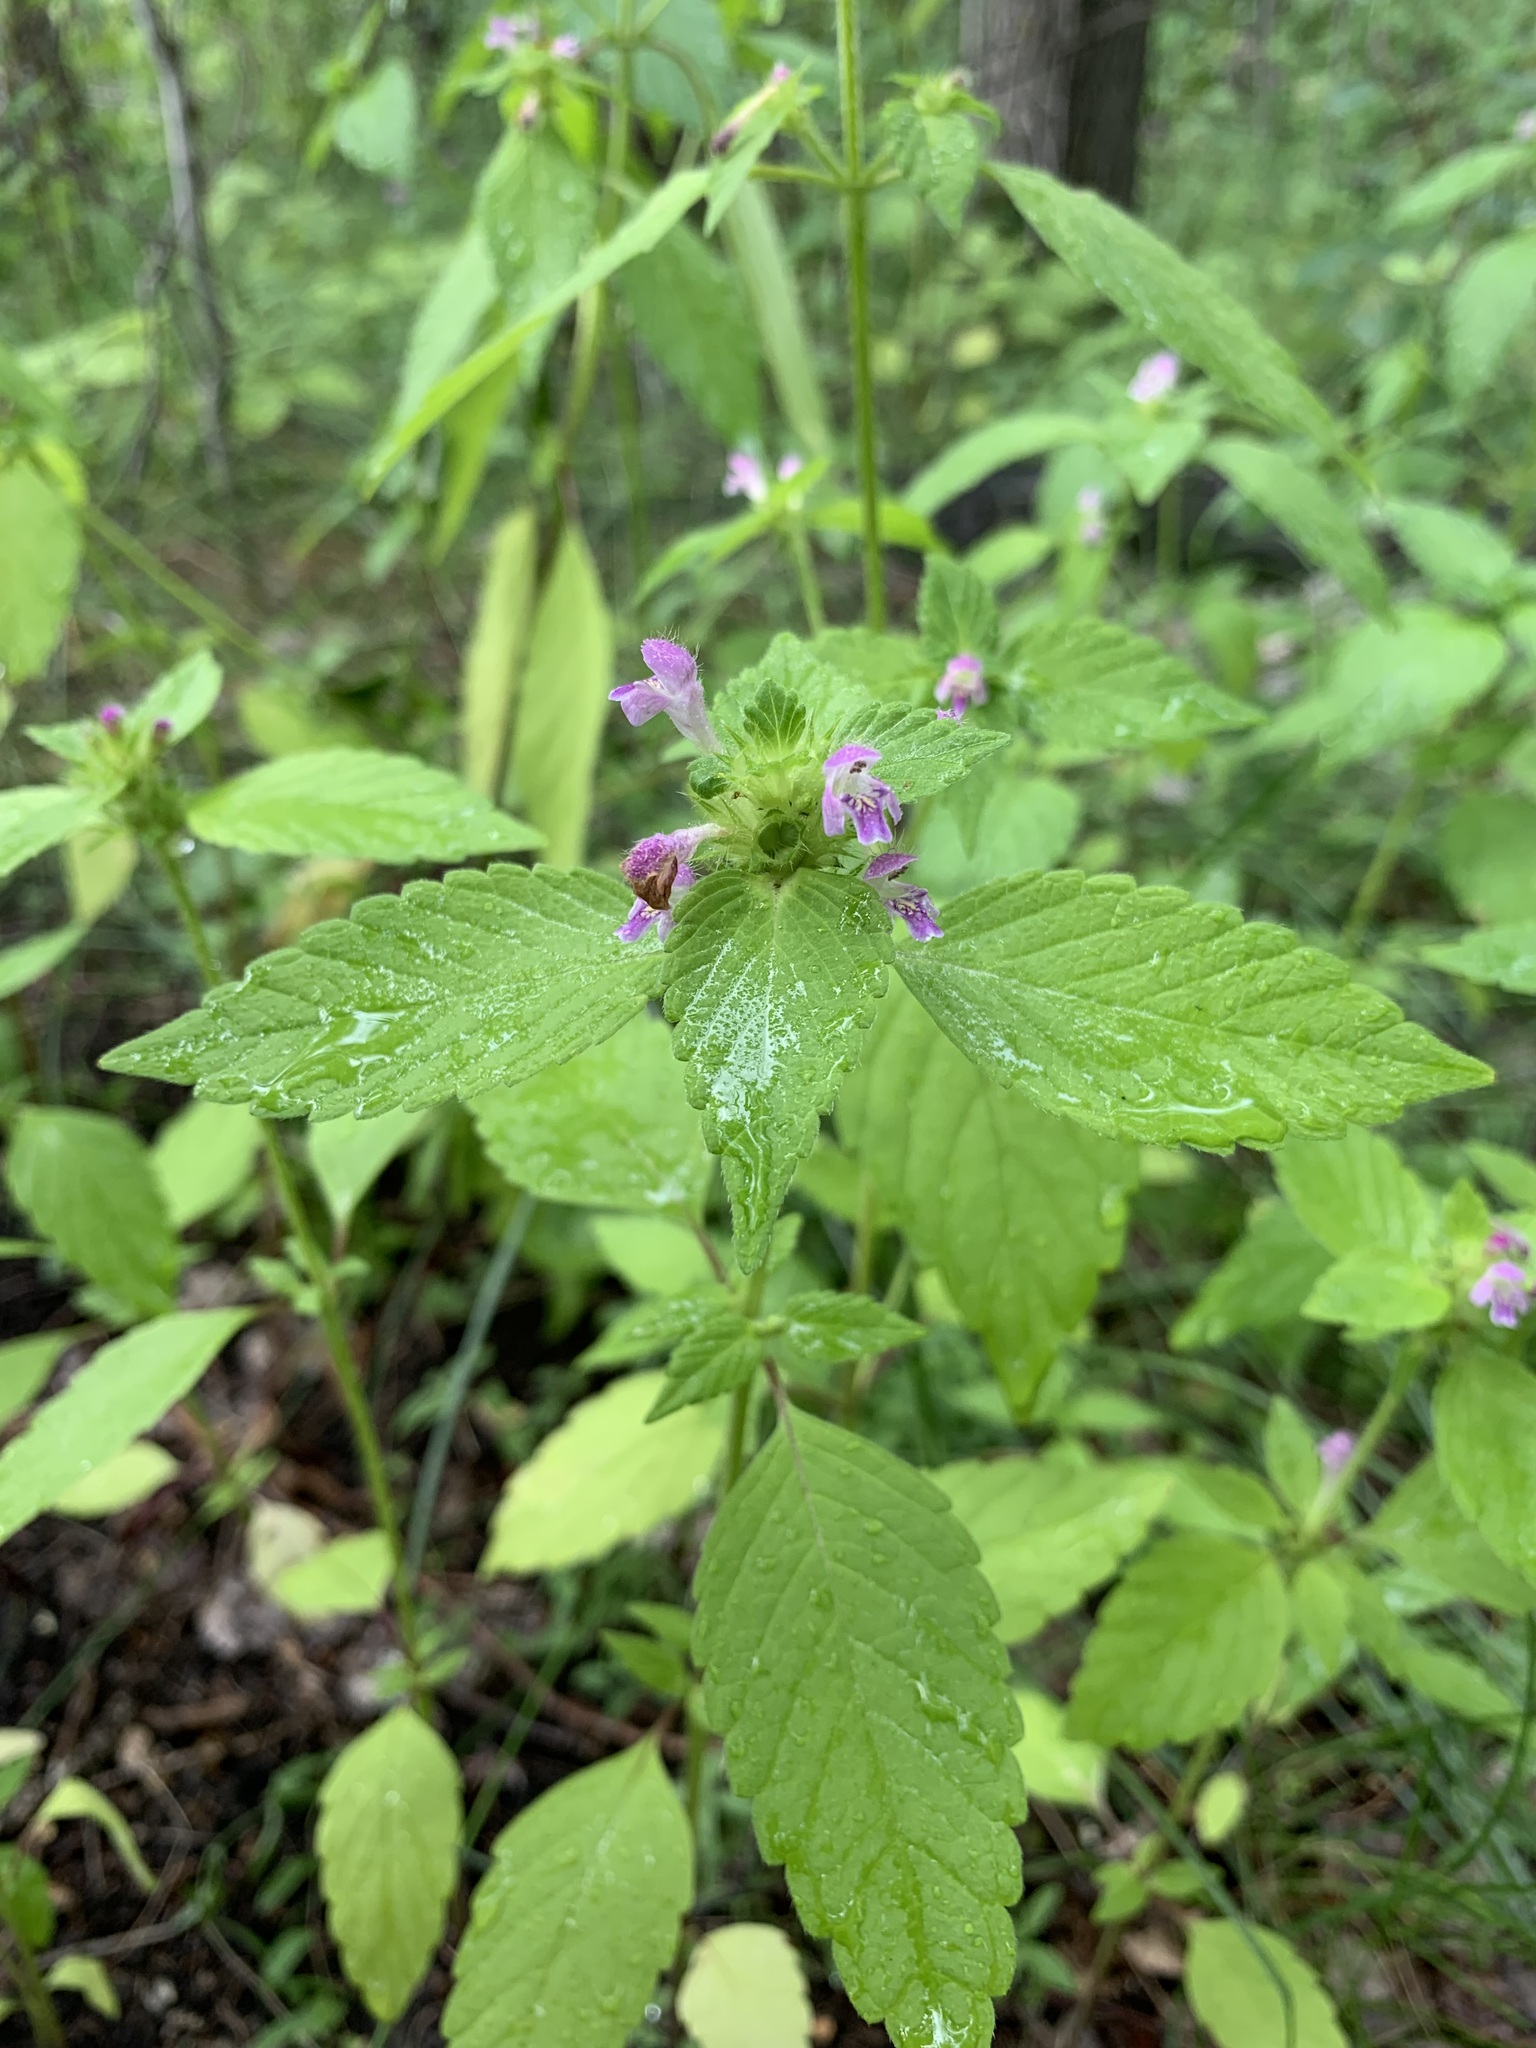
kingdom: Plantae
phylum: Tracheophyta
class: Magnoliopsida
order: Lamiales
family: Lamiaceae
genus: Galeopsis
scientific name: Galeopsis bifida
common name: Bifid hemp-nettle
